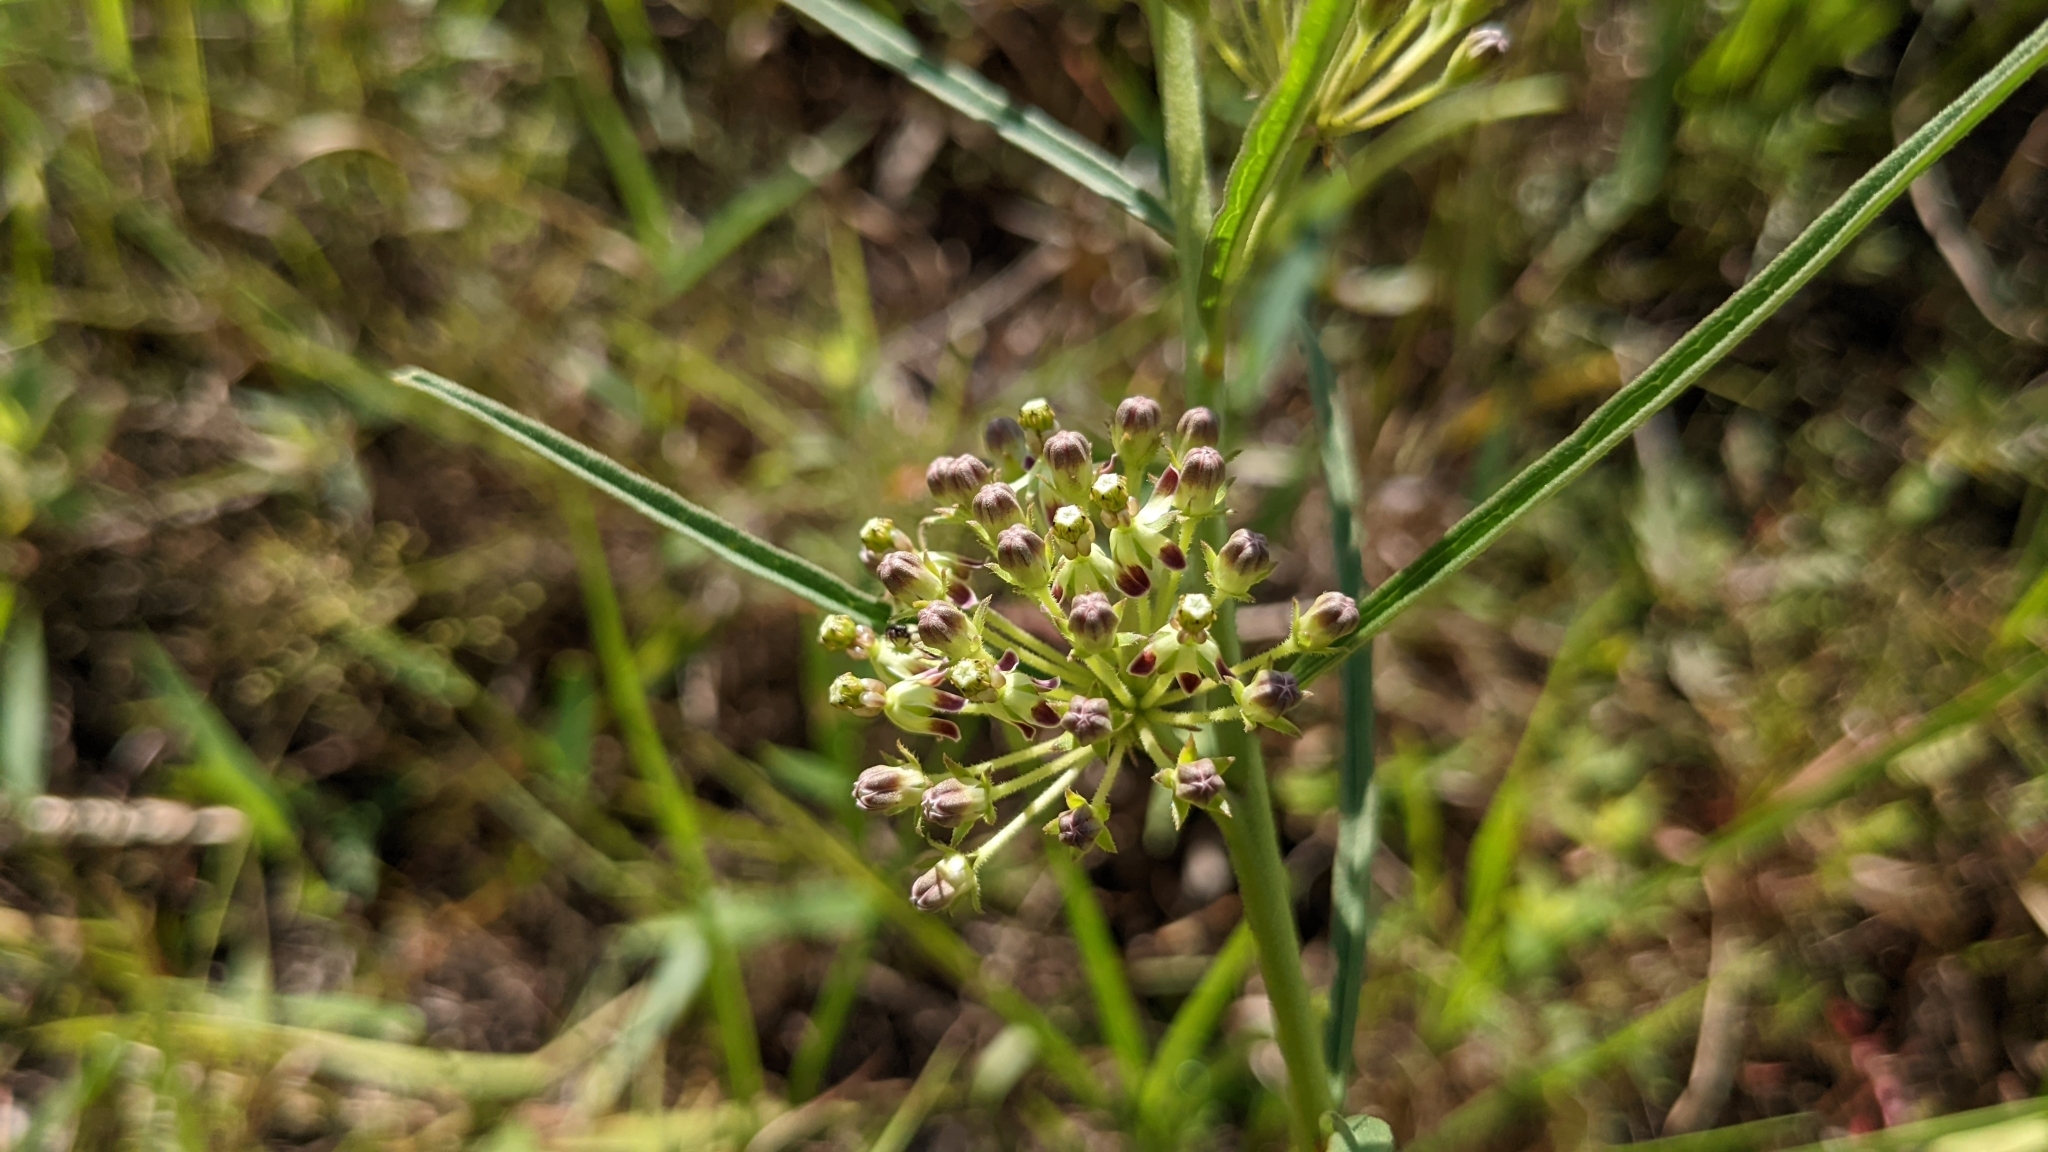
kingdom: Plantae
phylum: Tracheophyta
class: Magnoliopsida
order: Gentianales
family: Apocynaceae
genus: Asclepias
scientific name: Asclepias hirtella
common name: Prairie milkweed
